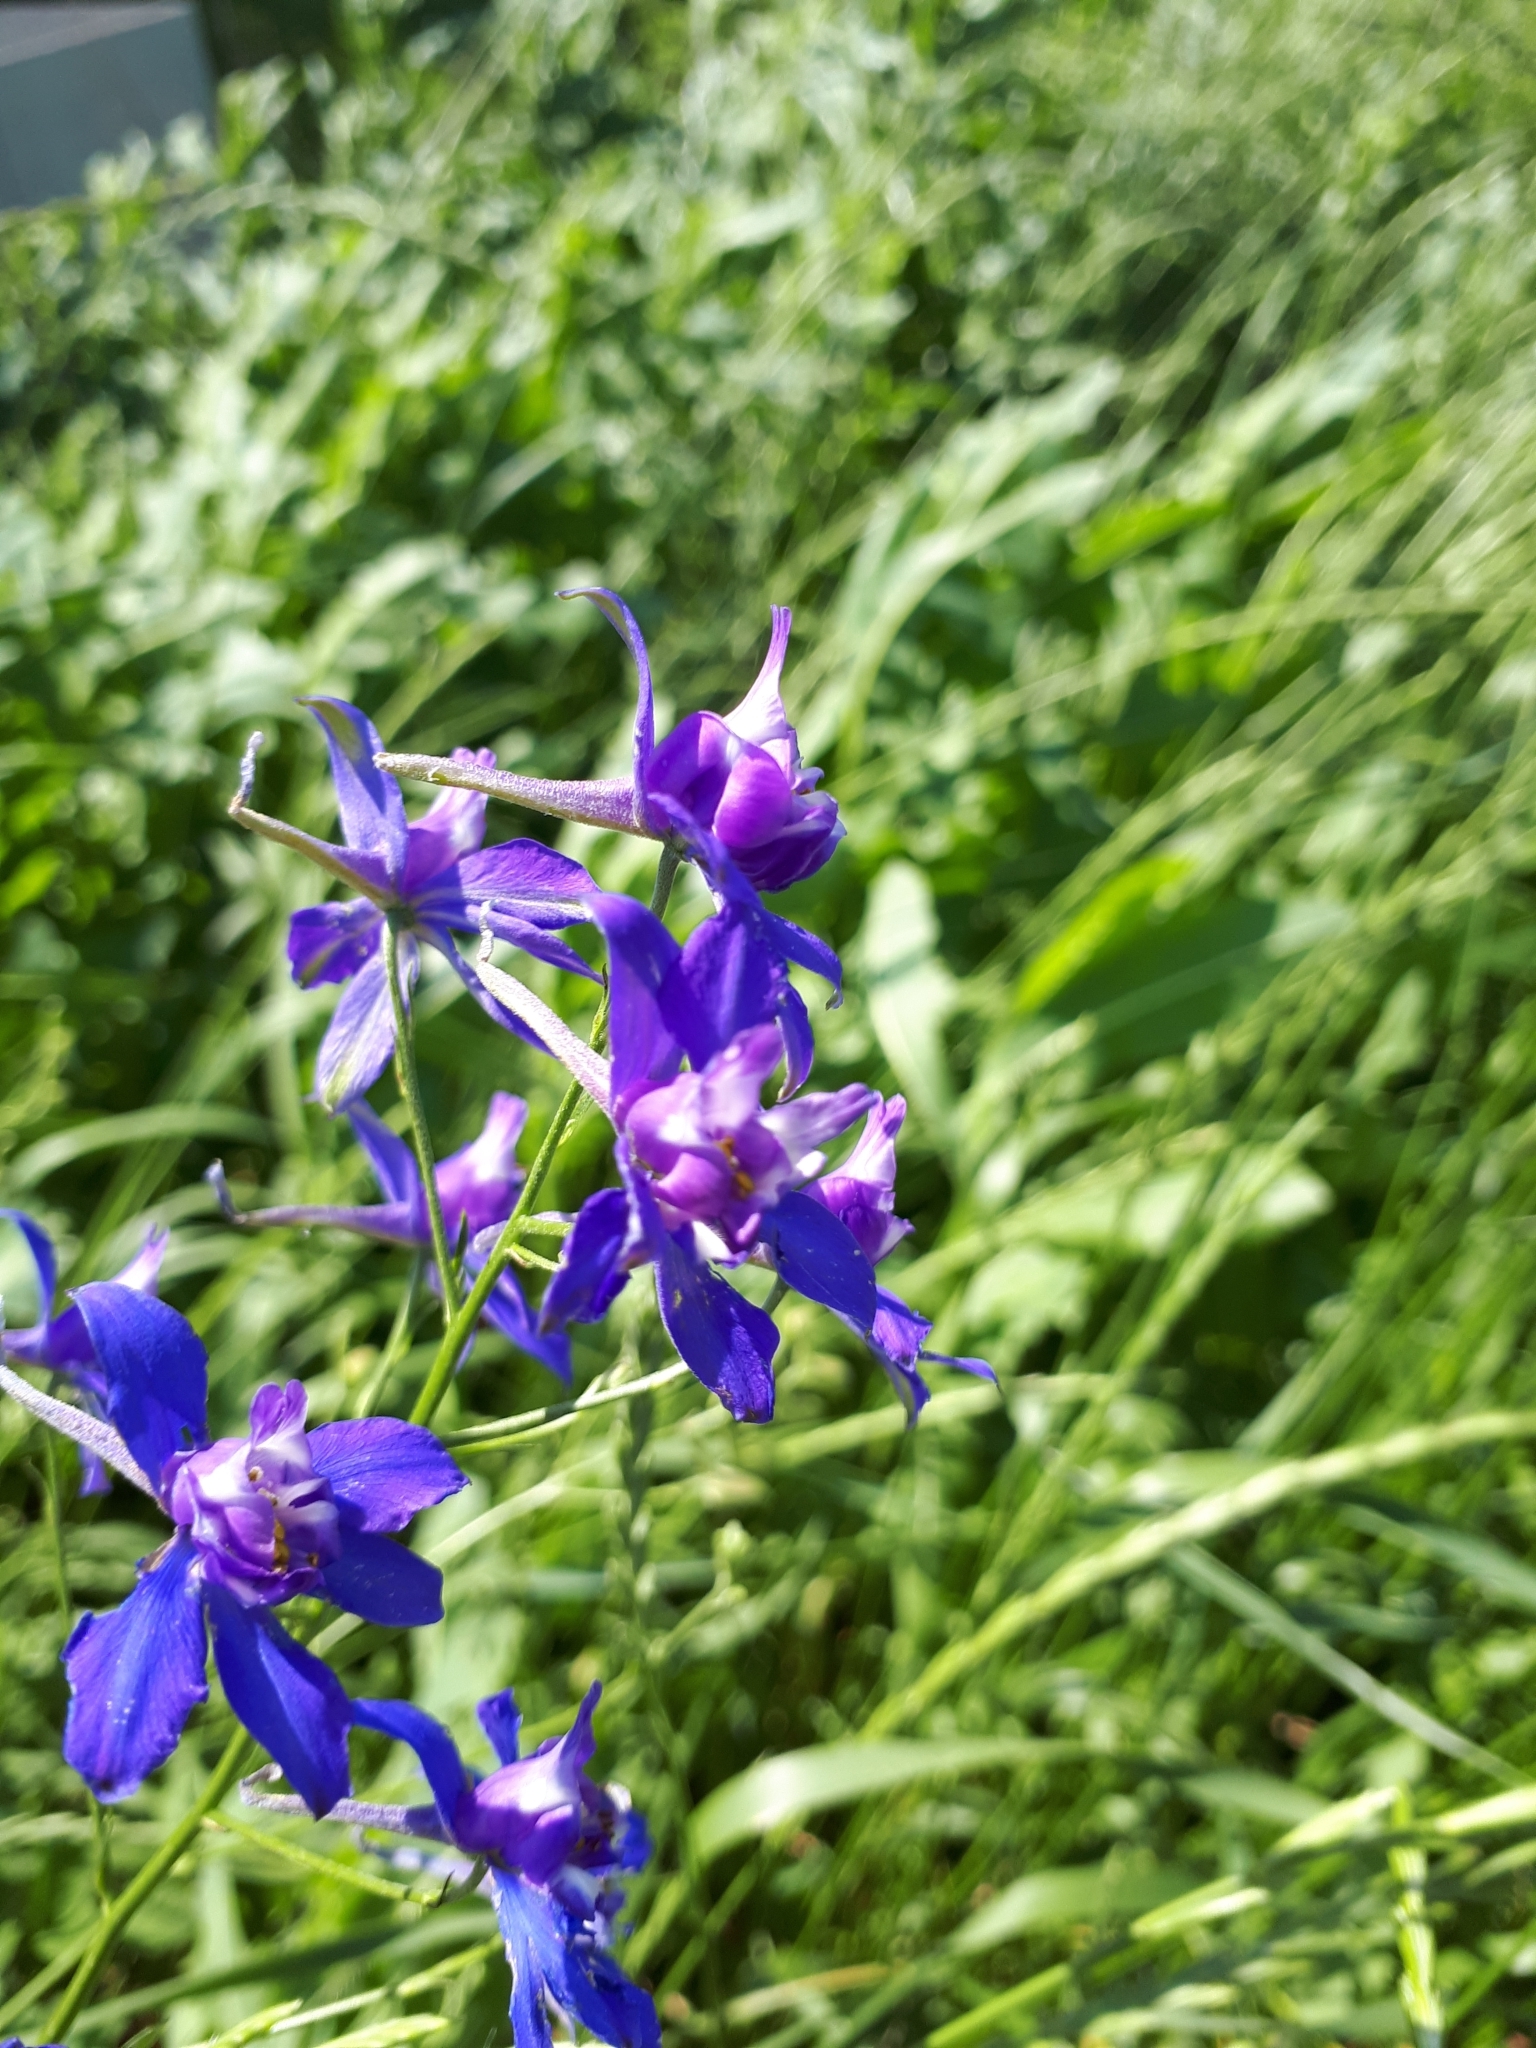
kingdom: Plantae
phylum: Tracheophyta
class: Magnoliopsida
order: Ranunculales
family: Ranunculaceae
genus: Delphinium
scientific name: Delphinium consolida
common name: Branching larkspur
